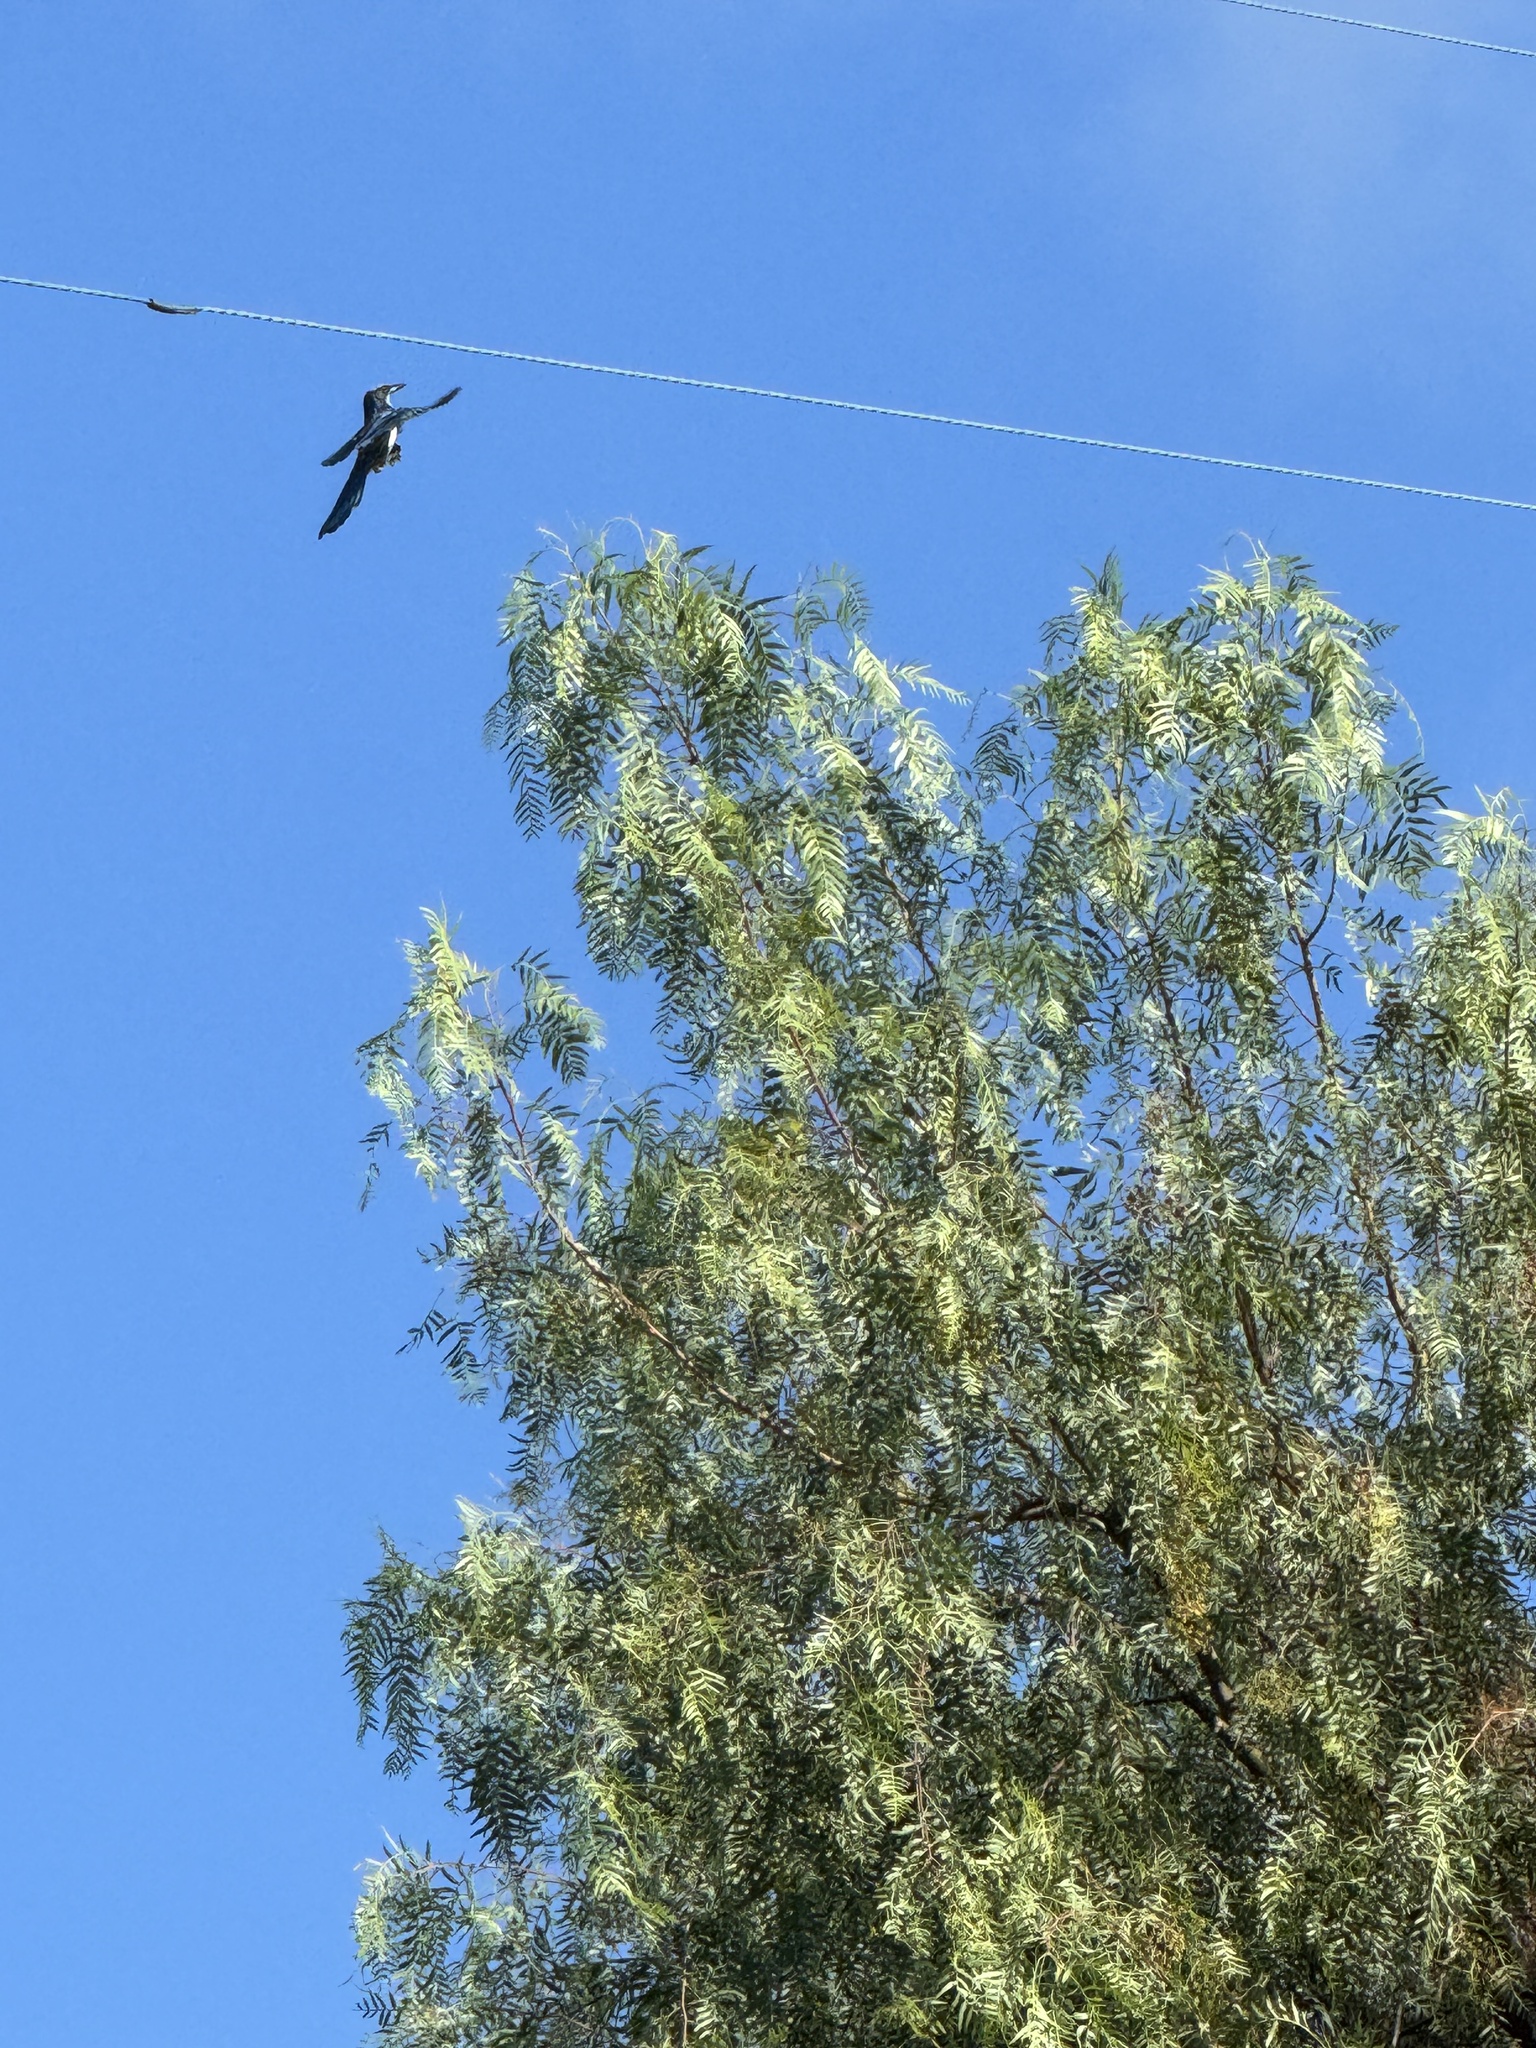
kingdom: Animalia
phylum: Chordata
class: Aves
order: Passeriformes
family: Corvidae
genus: Aphelocoma
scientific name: Aphelocoma californica
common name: California scrub-jay
